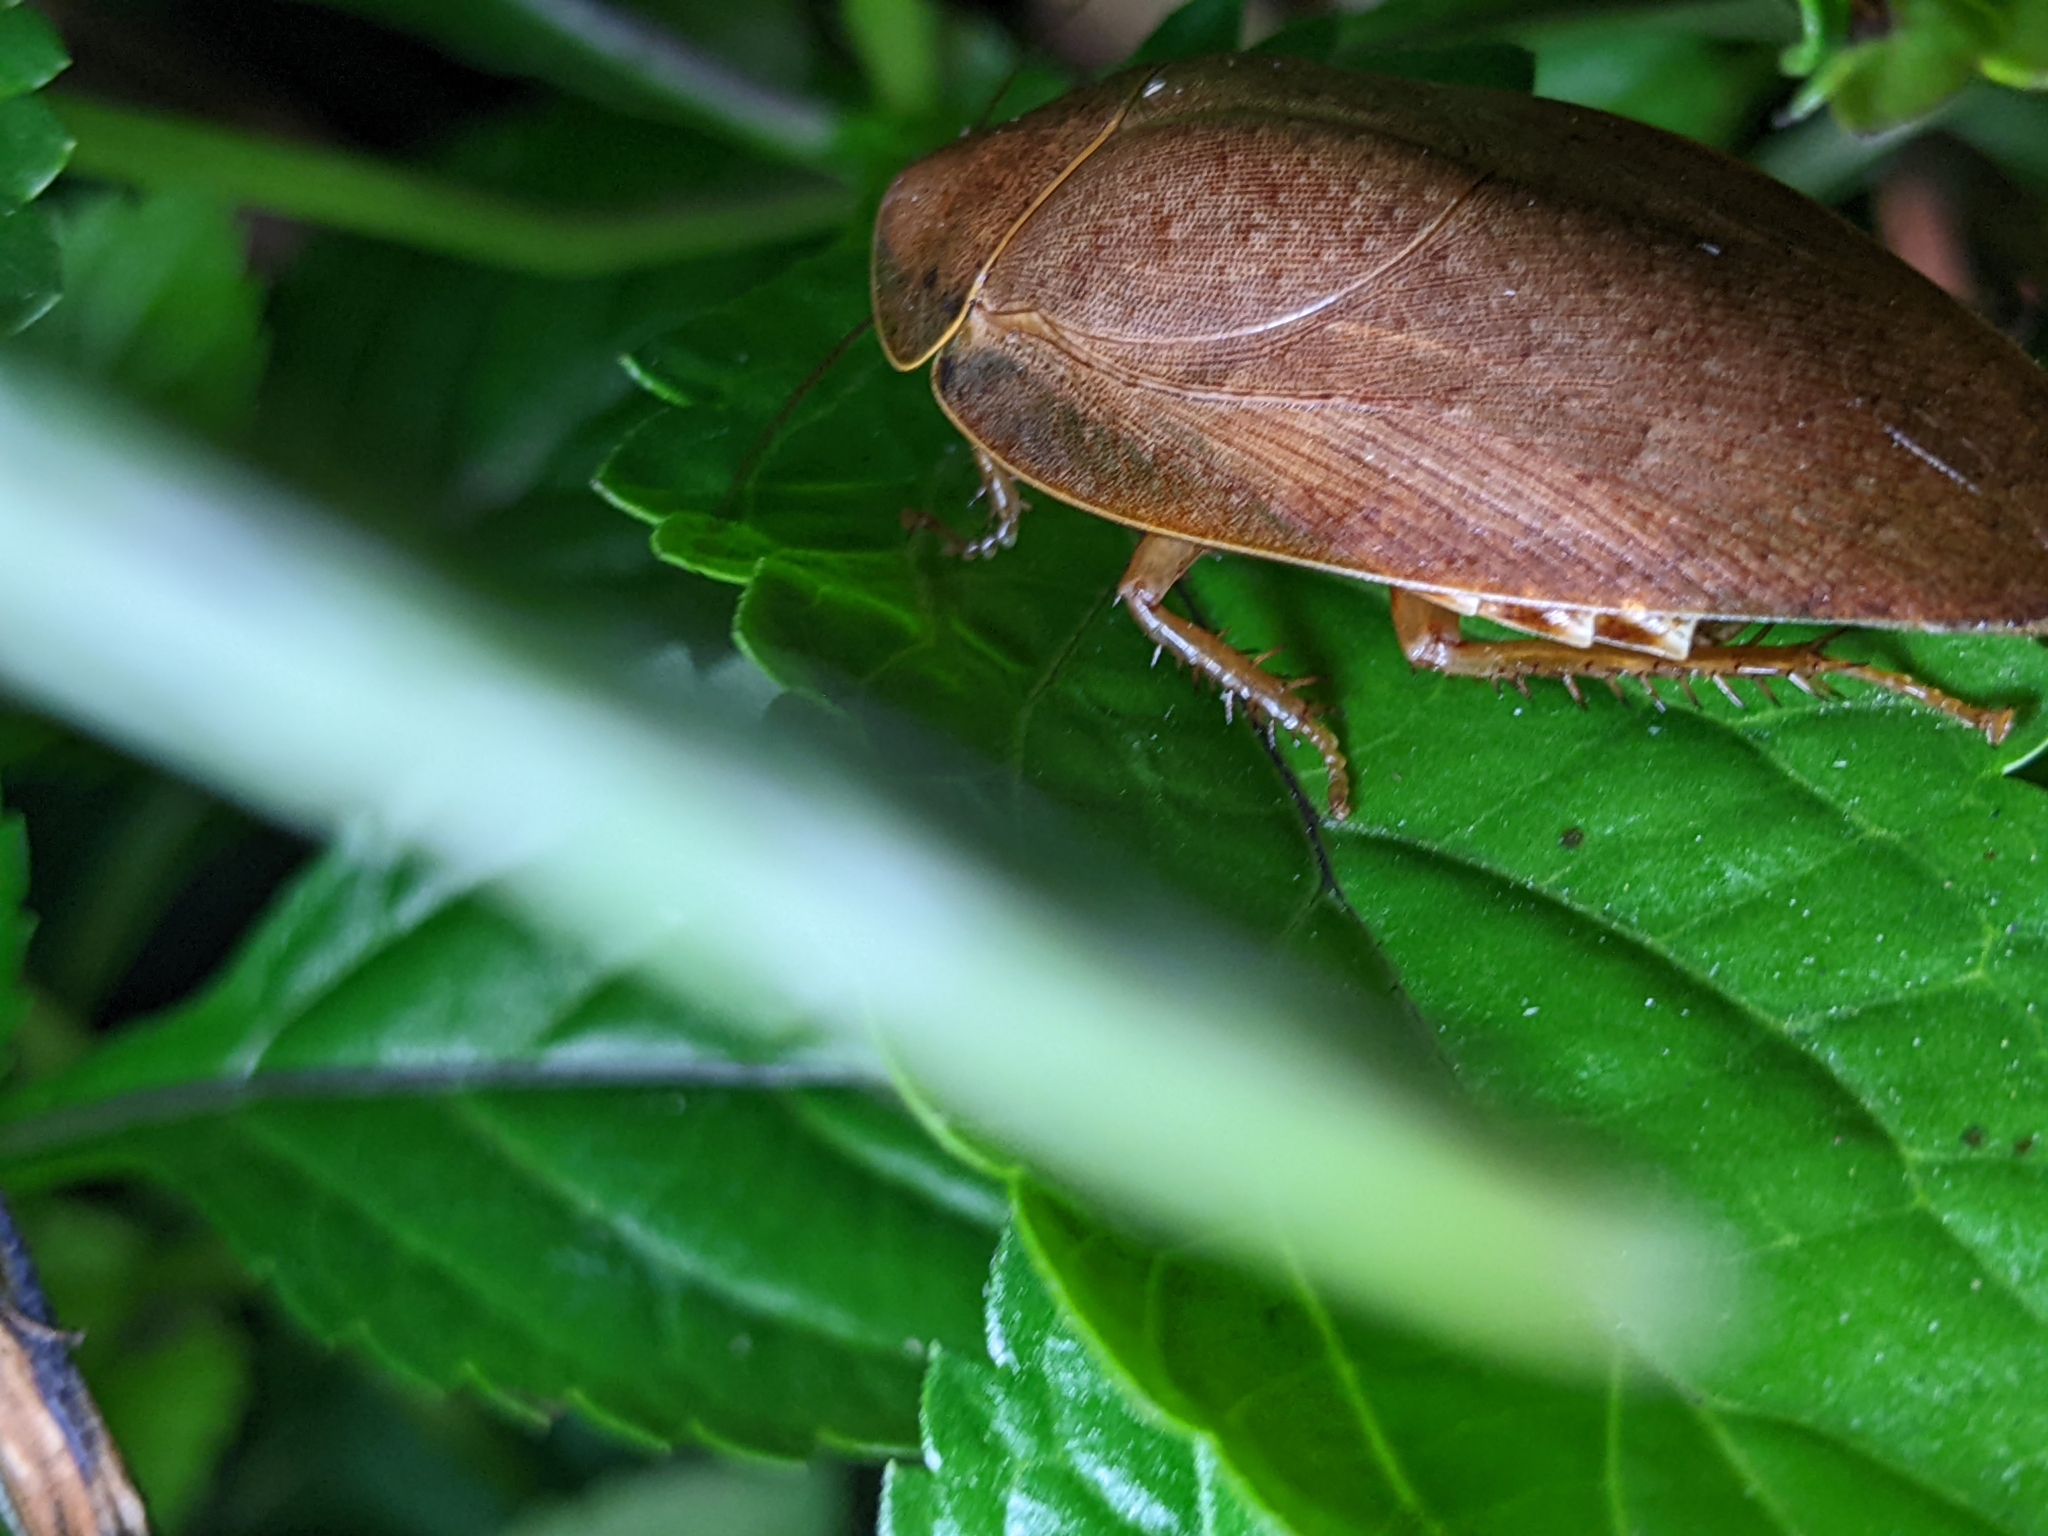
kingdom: Animalia
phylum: Arthropoda
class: Insecta
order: Blattodea
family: Blaberidae
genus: Pseudophoraspis
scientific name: Pseudophoraspis nebulosa
